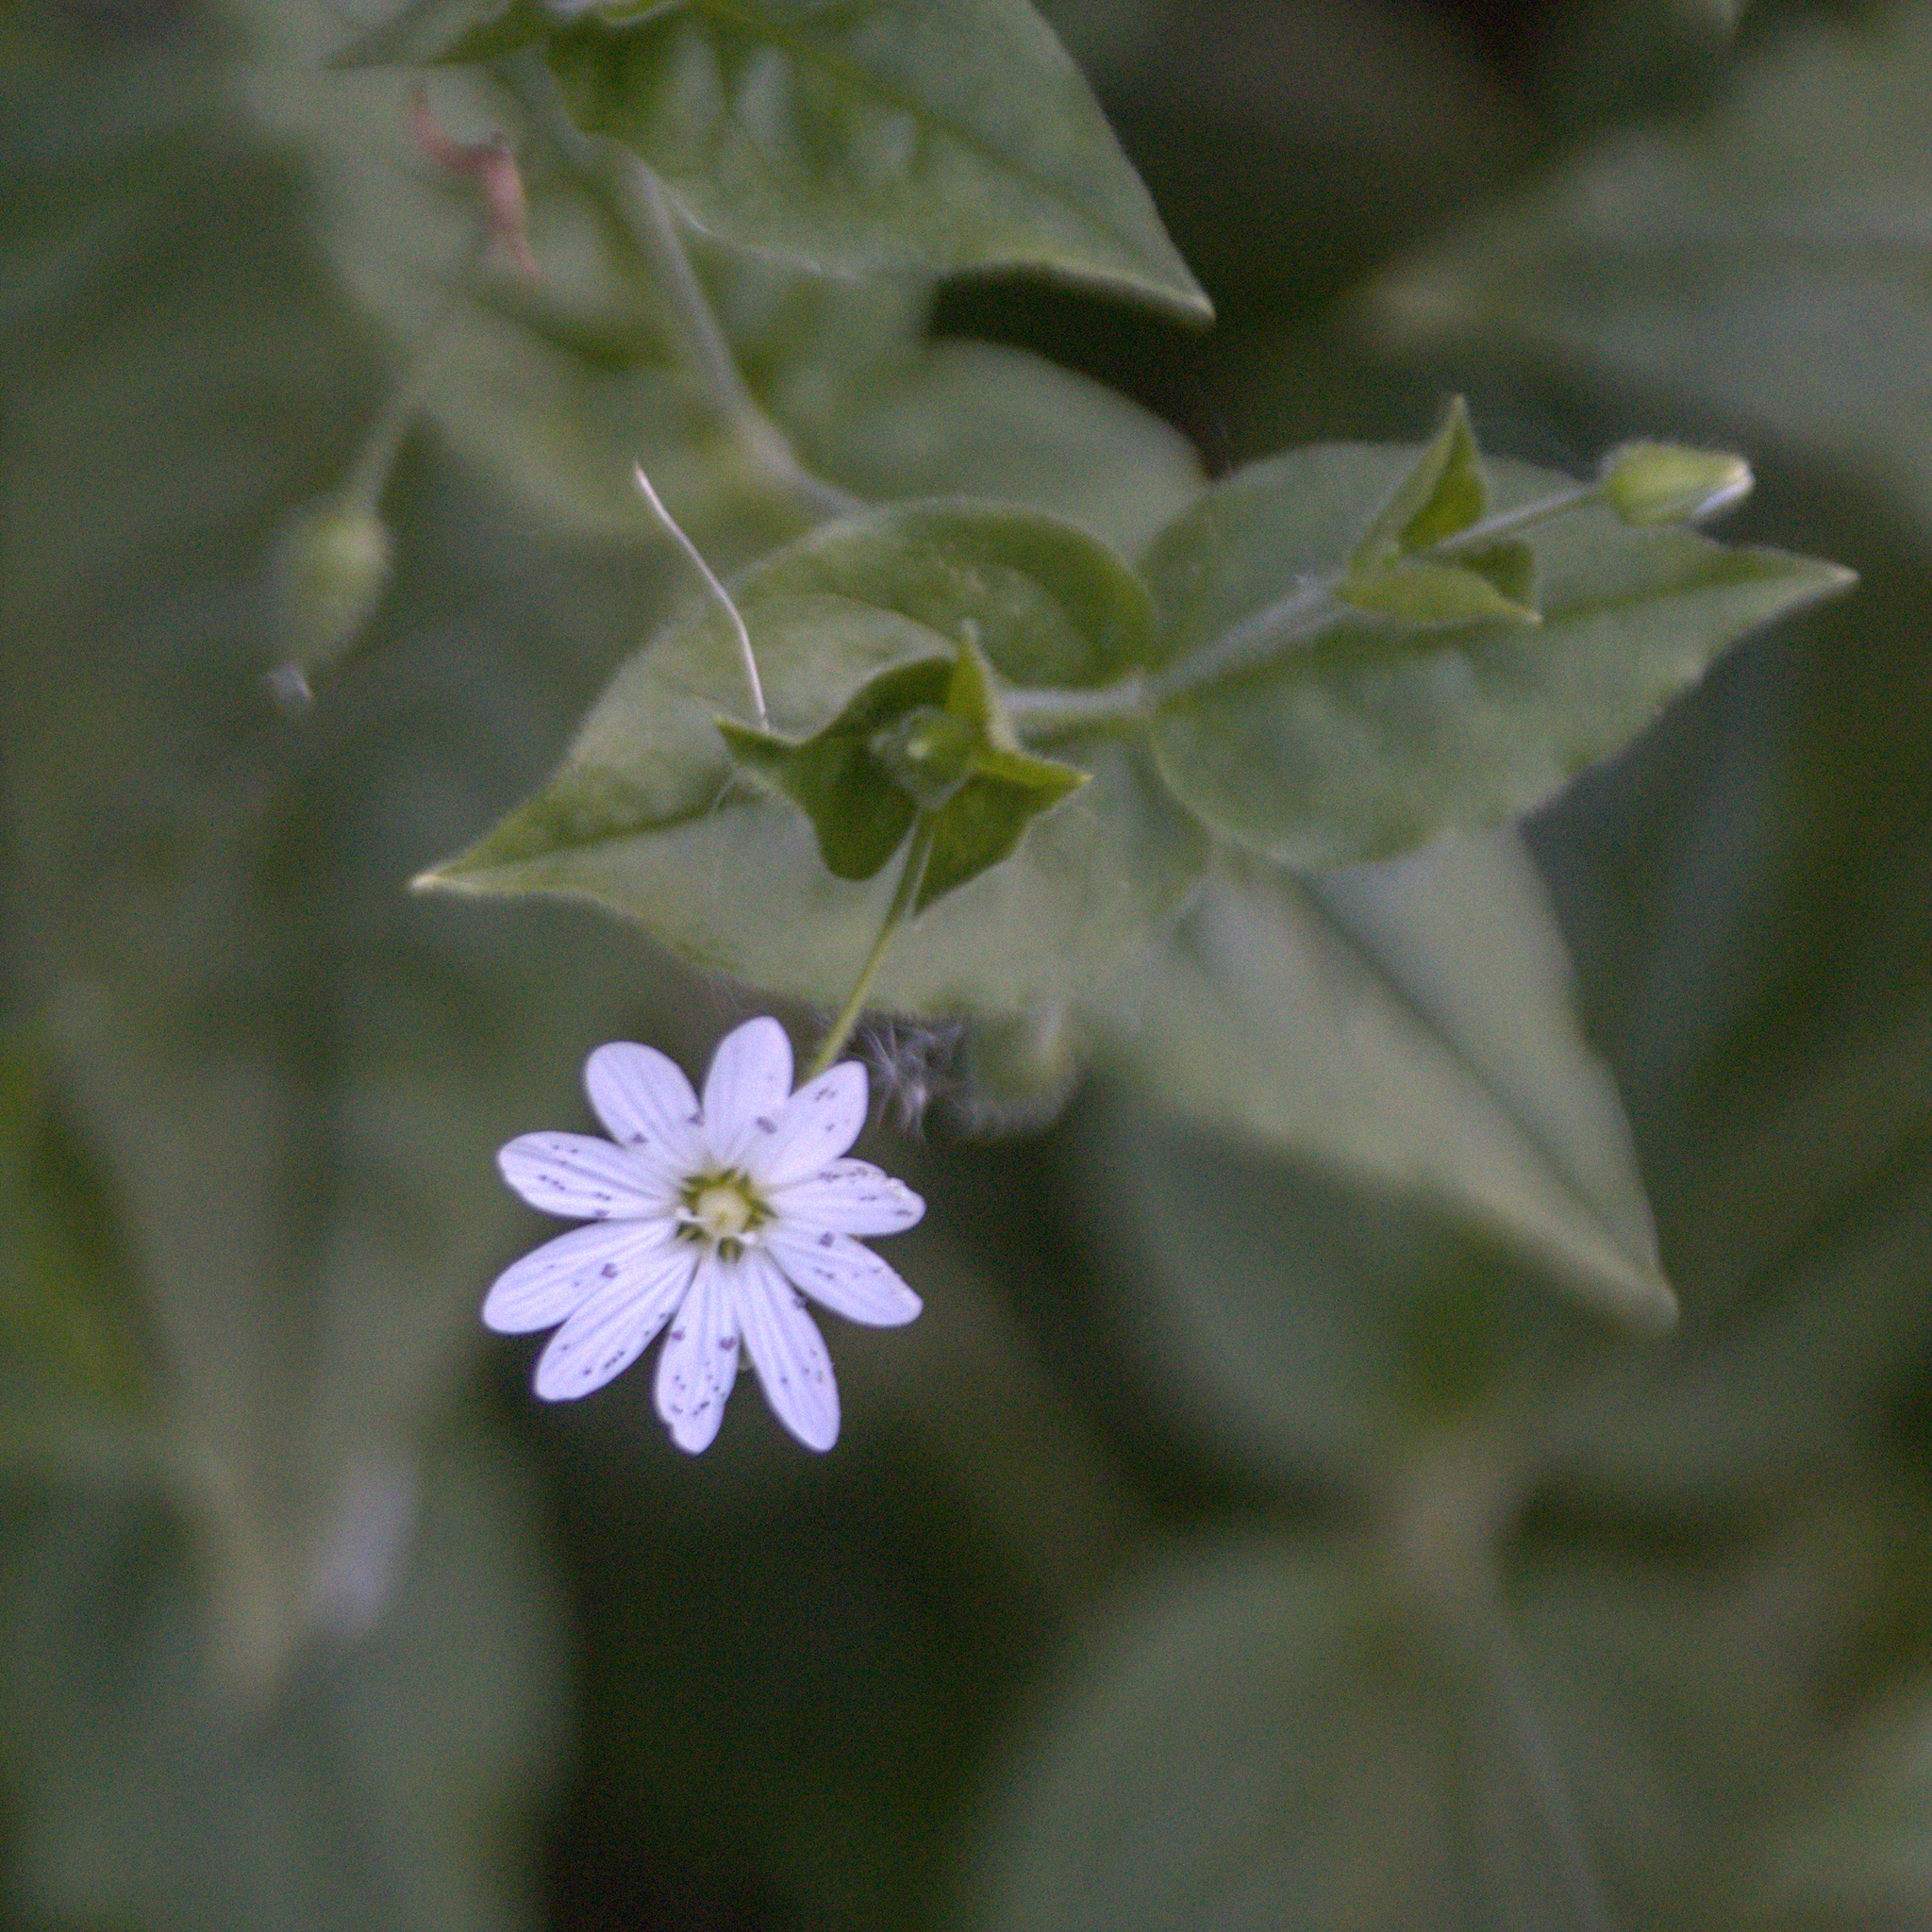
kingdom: Plantae
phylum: Tracheophyta
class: Magnoliopsida
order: Caryophyllales
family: Caryophyllaceae
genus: Stellaria
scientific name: Stellaria bungeana
